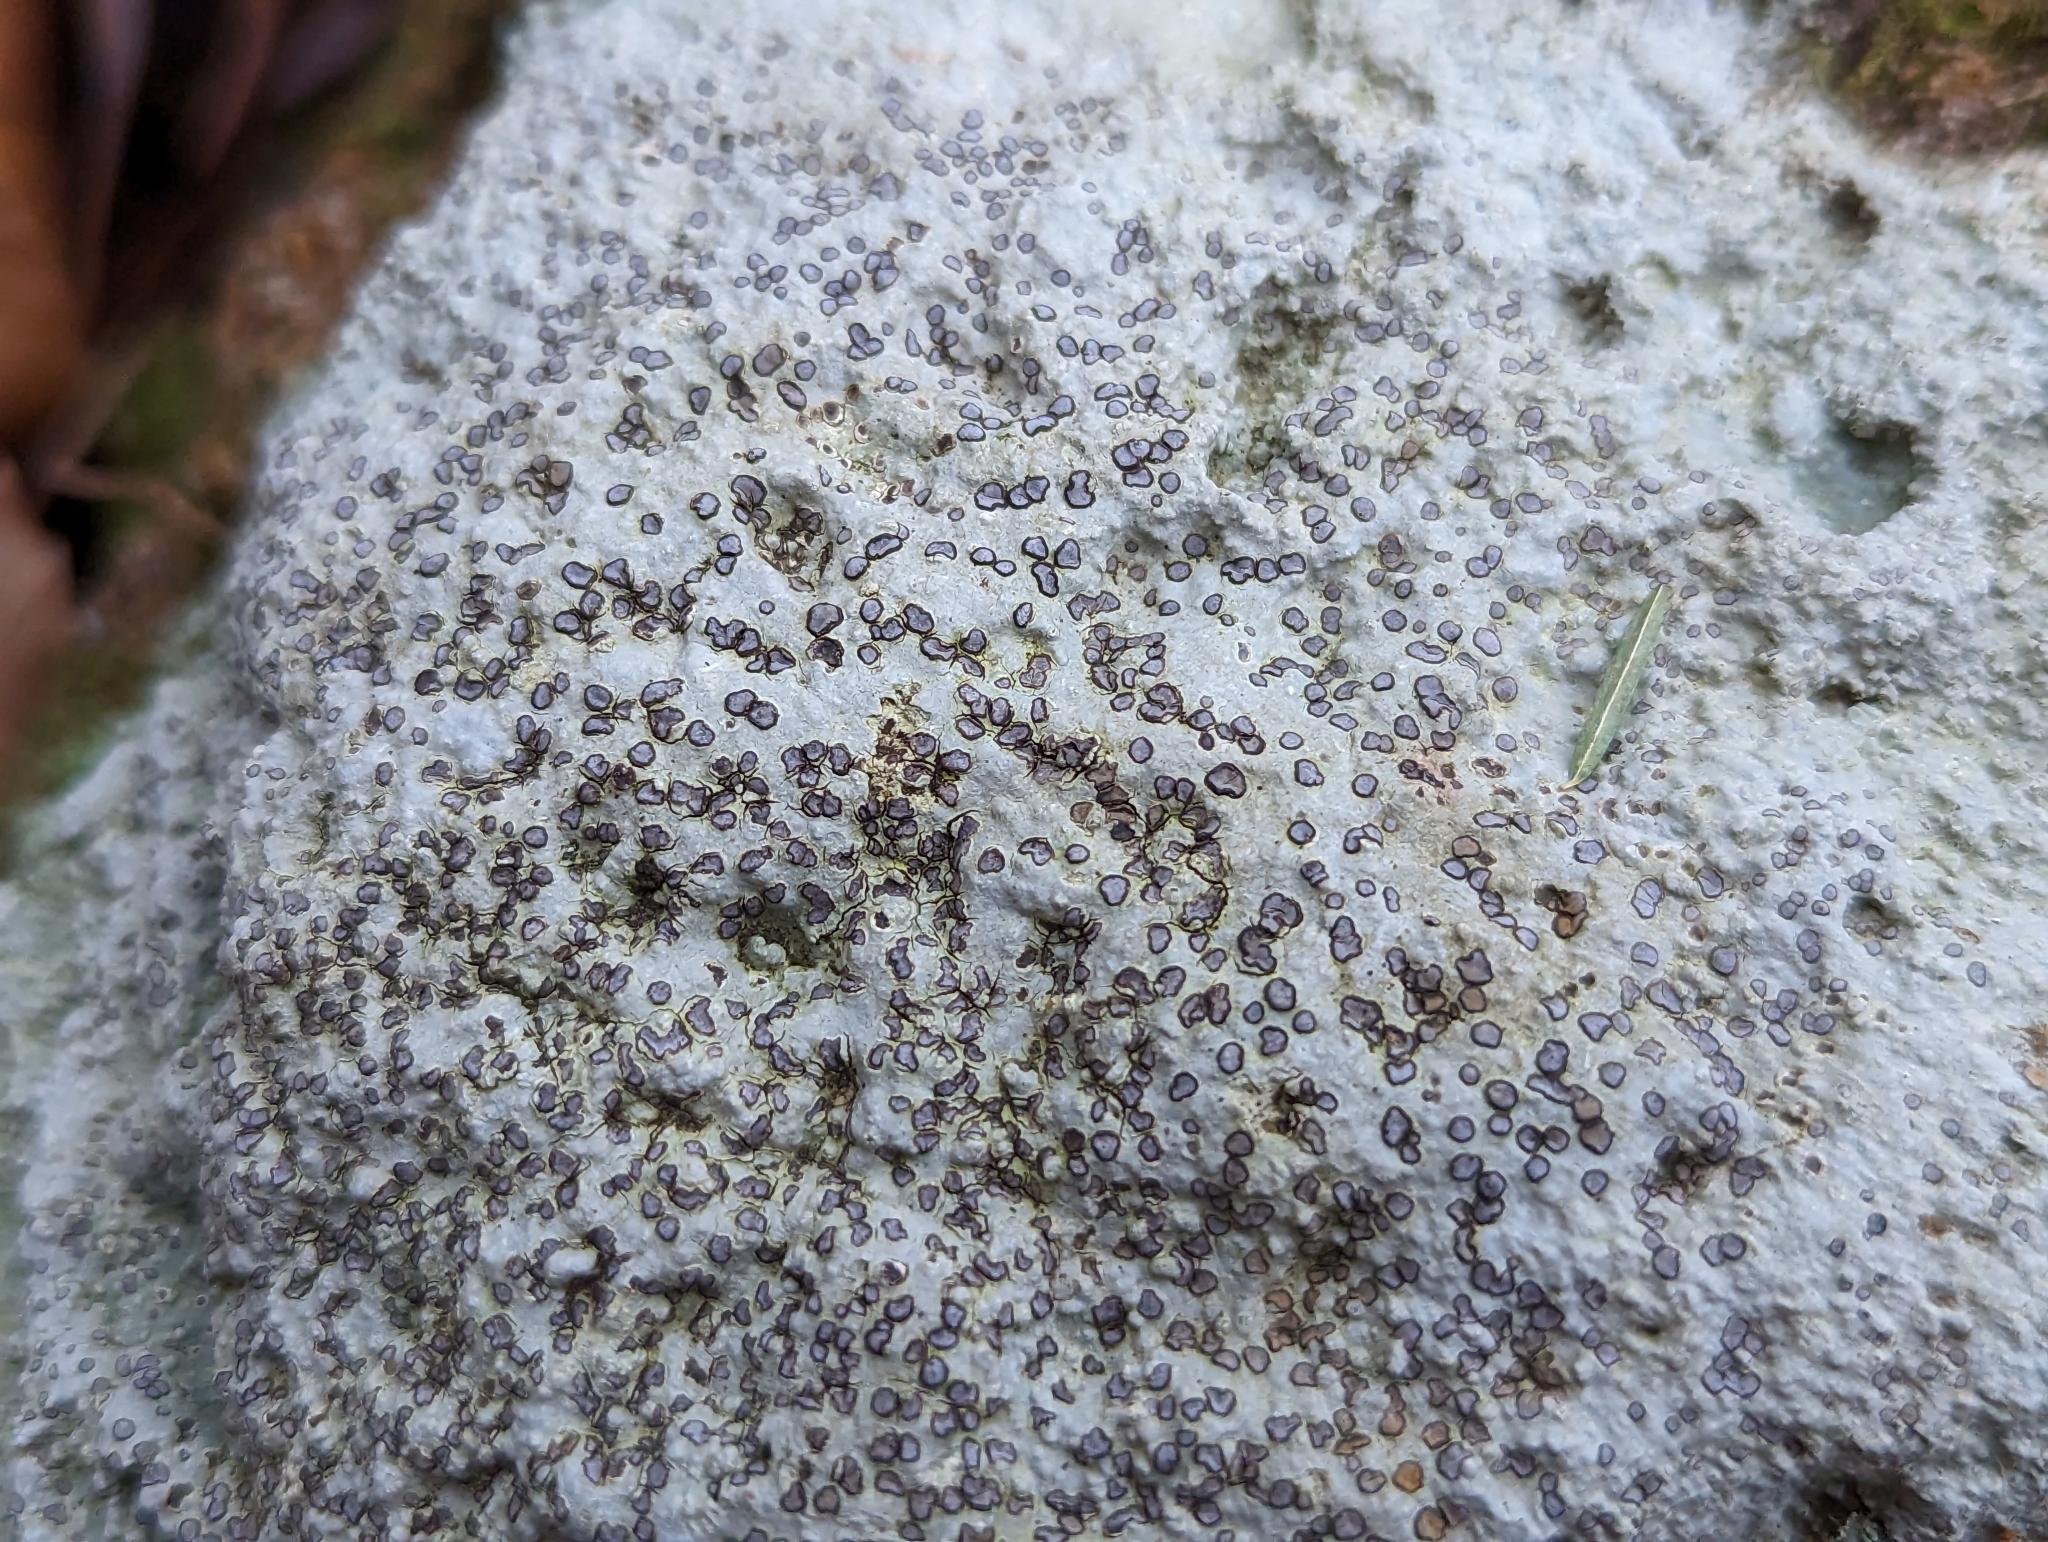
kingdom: Fungi
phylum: Ascomycota
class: Lecanoromycetes
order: Lecideales
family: Lecideaceae
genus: Porpidia
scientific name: Porpidia albocaerulescens
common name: Smokey-eyed boulder lichen
